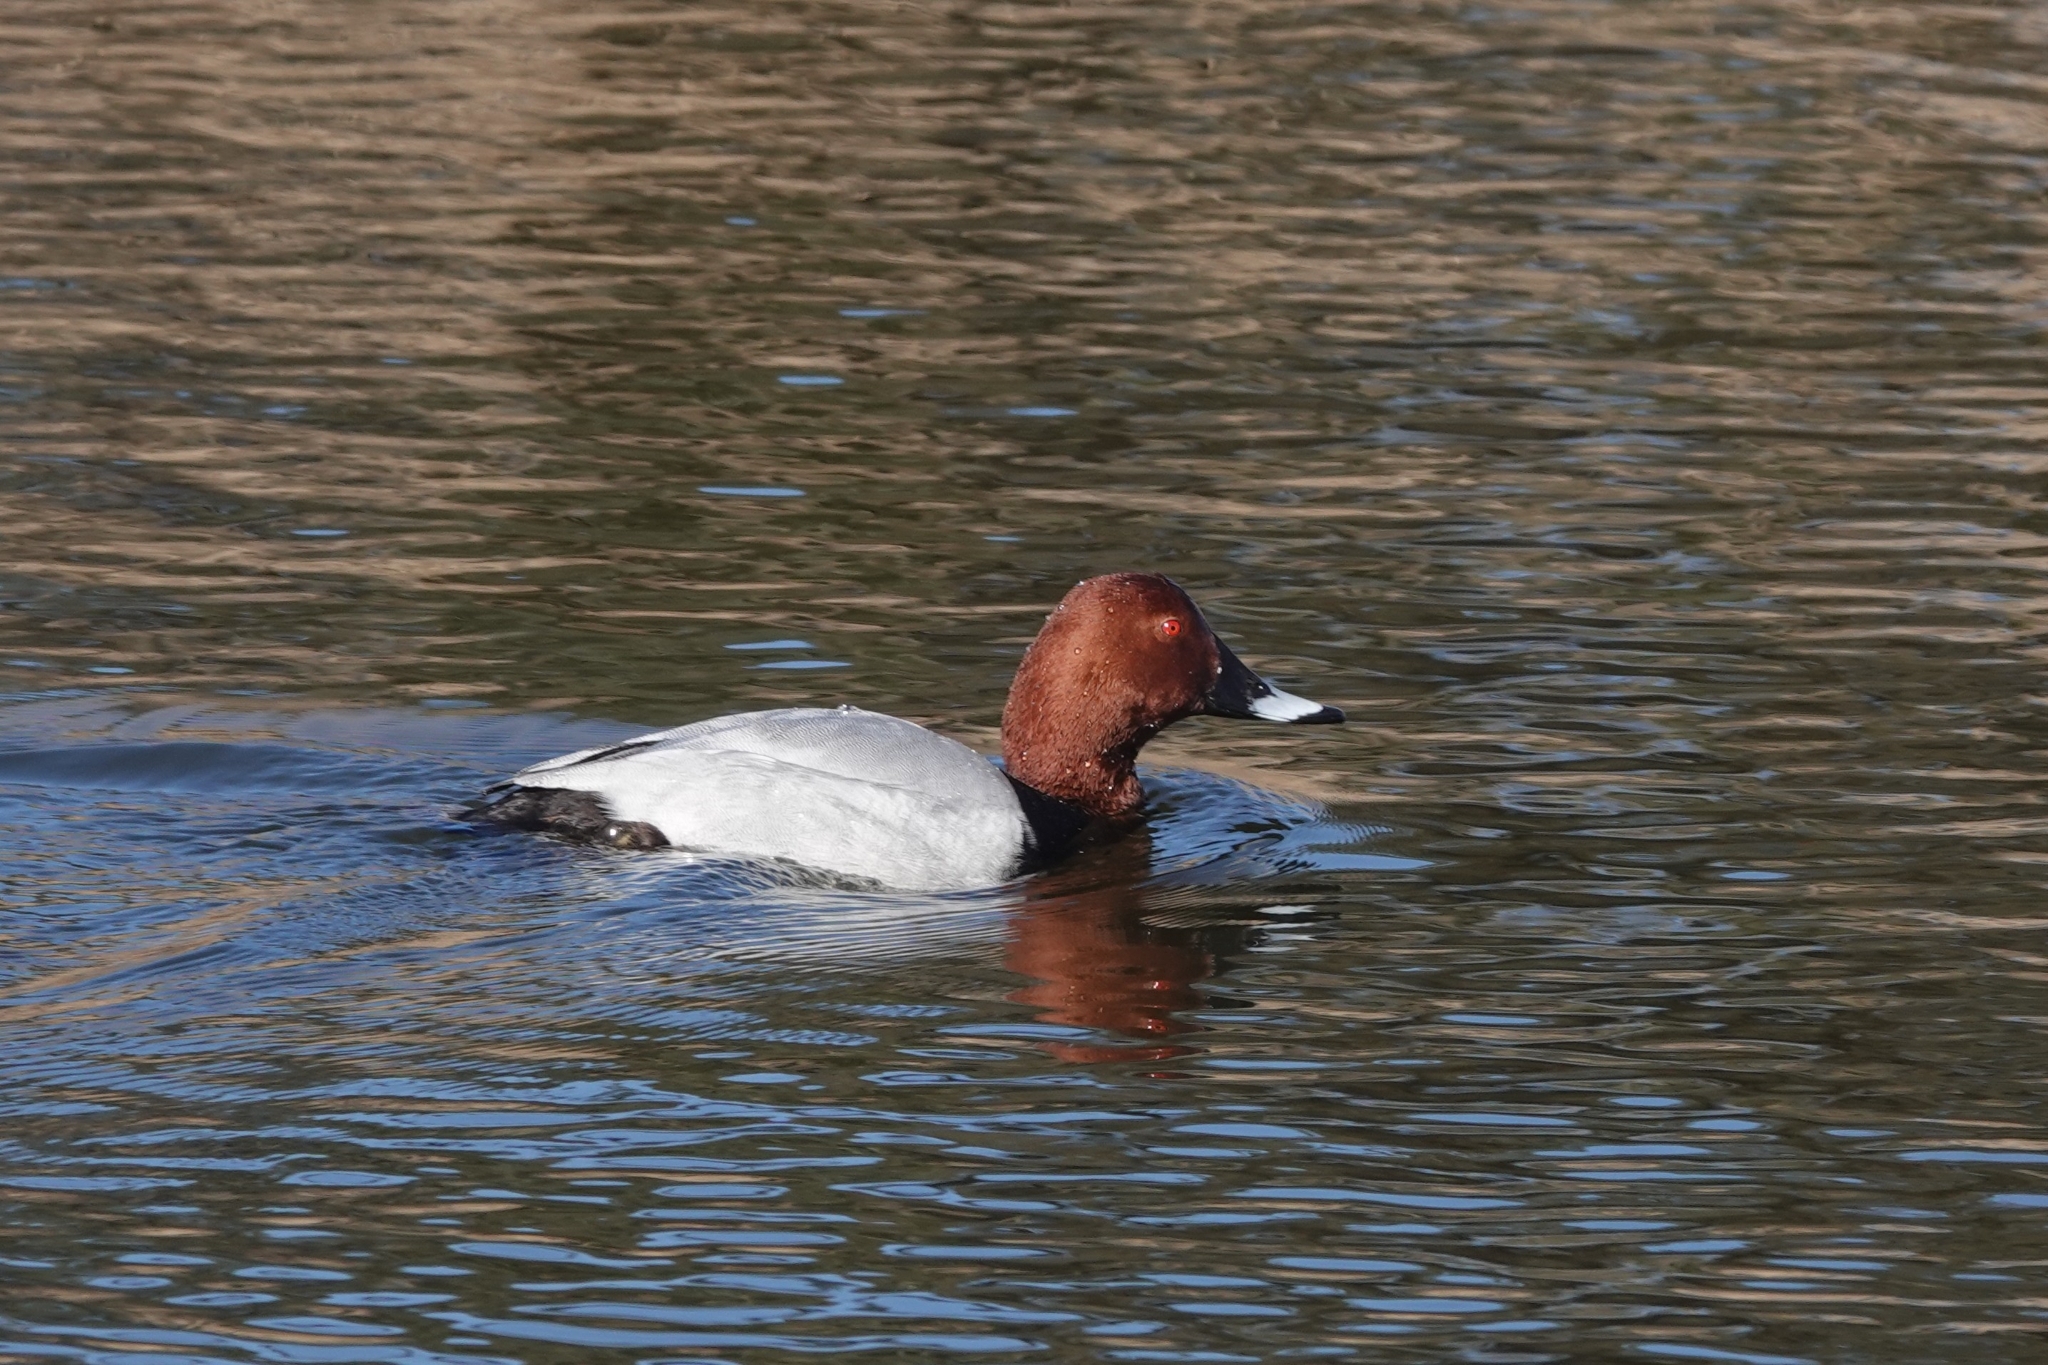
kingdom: Animalia
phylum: Chordata
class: Aves
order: Anseriformes
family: Anatidae
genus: Aythya
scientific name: Aythya ferina
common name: Common pochard
